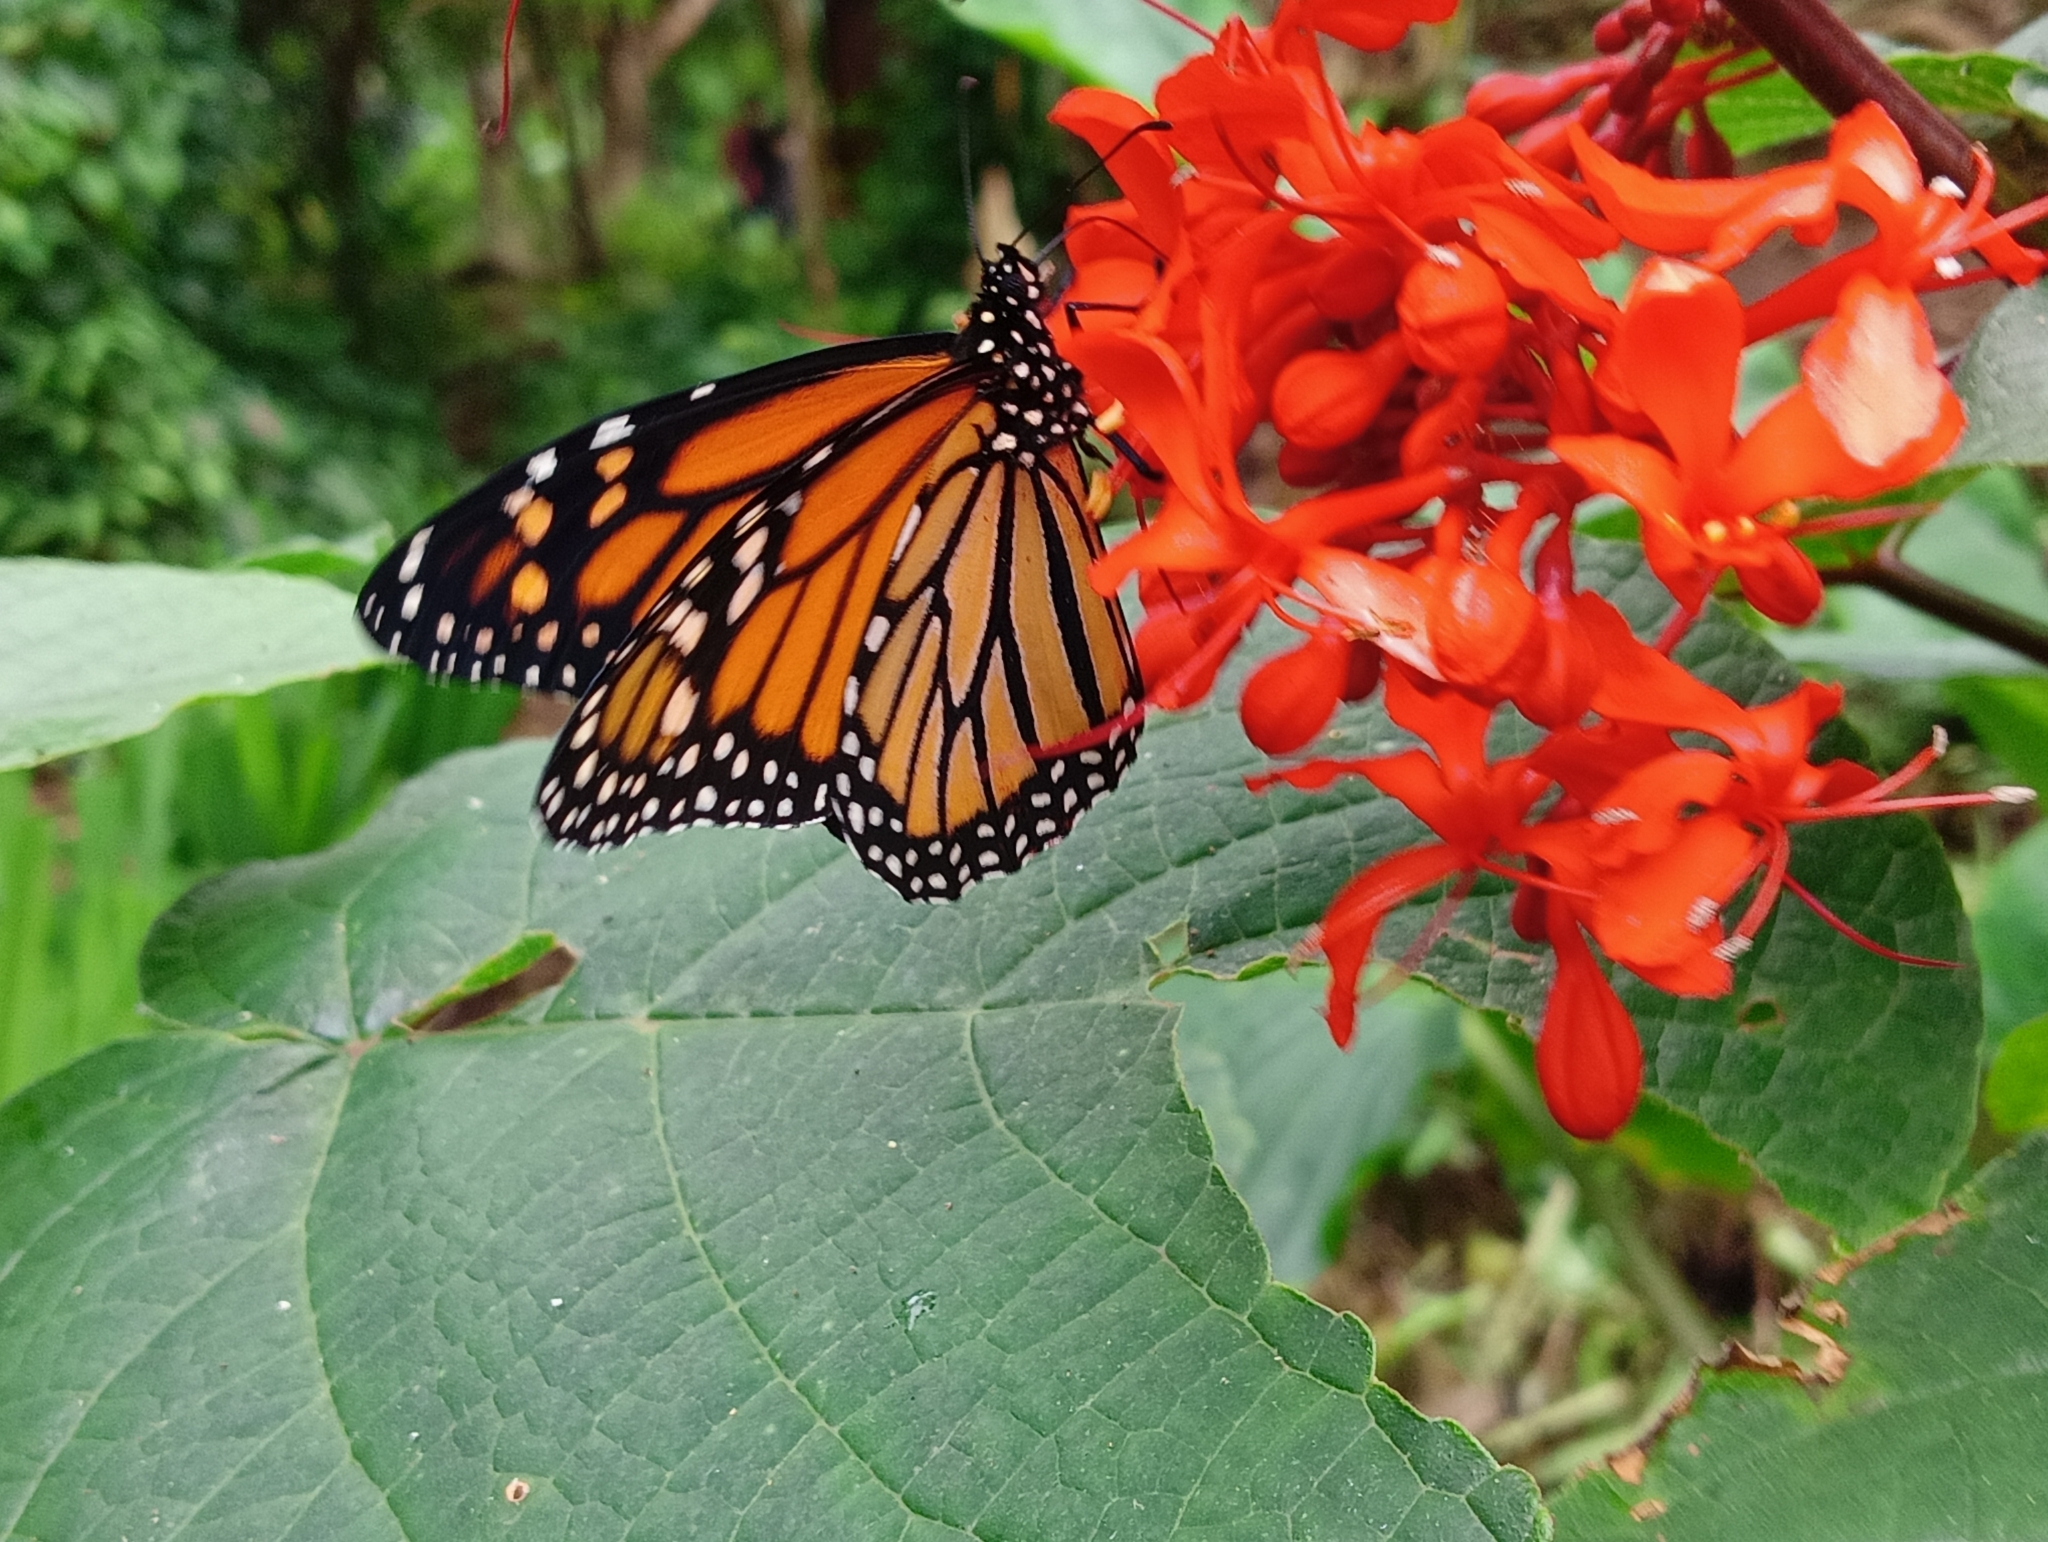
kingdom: Animalia
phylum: Arthropoda
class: Insecta
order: Lepidoptera
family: Nymphalidae
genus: Danaus
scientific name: Danaus plexippus
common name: Monarch
